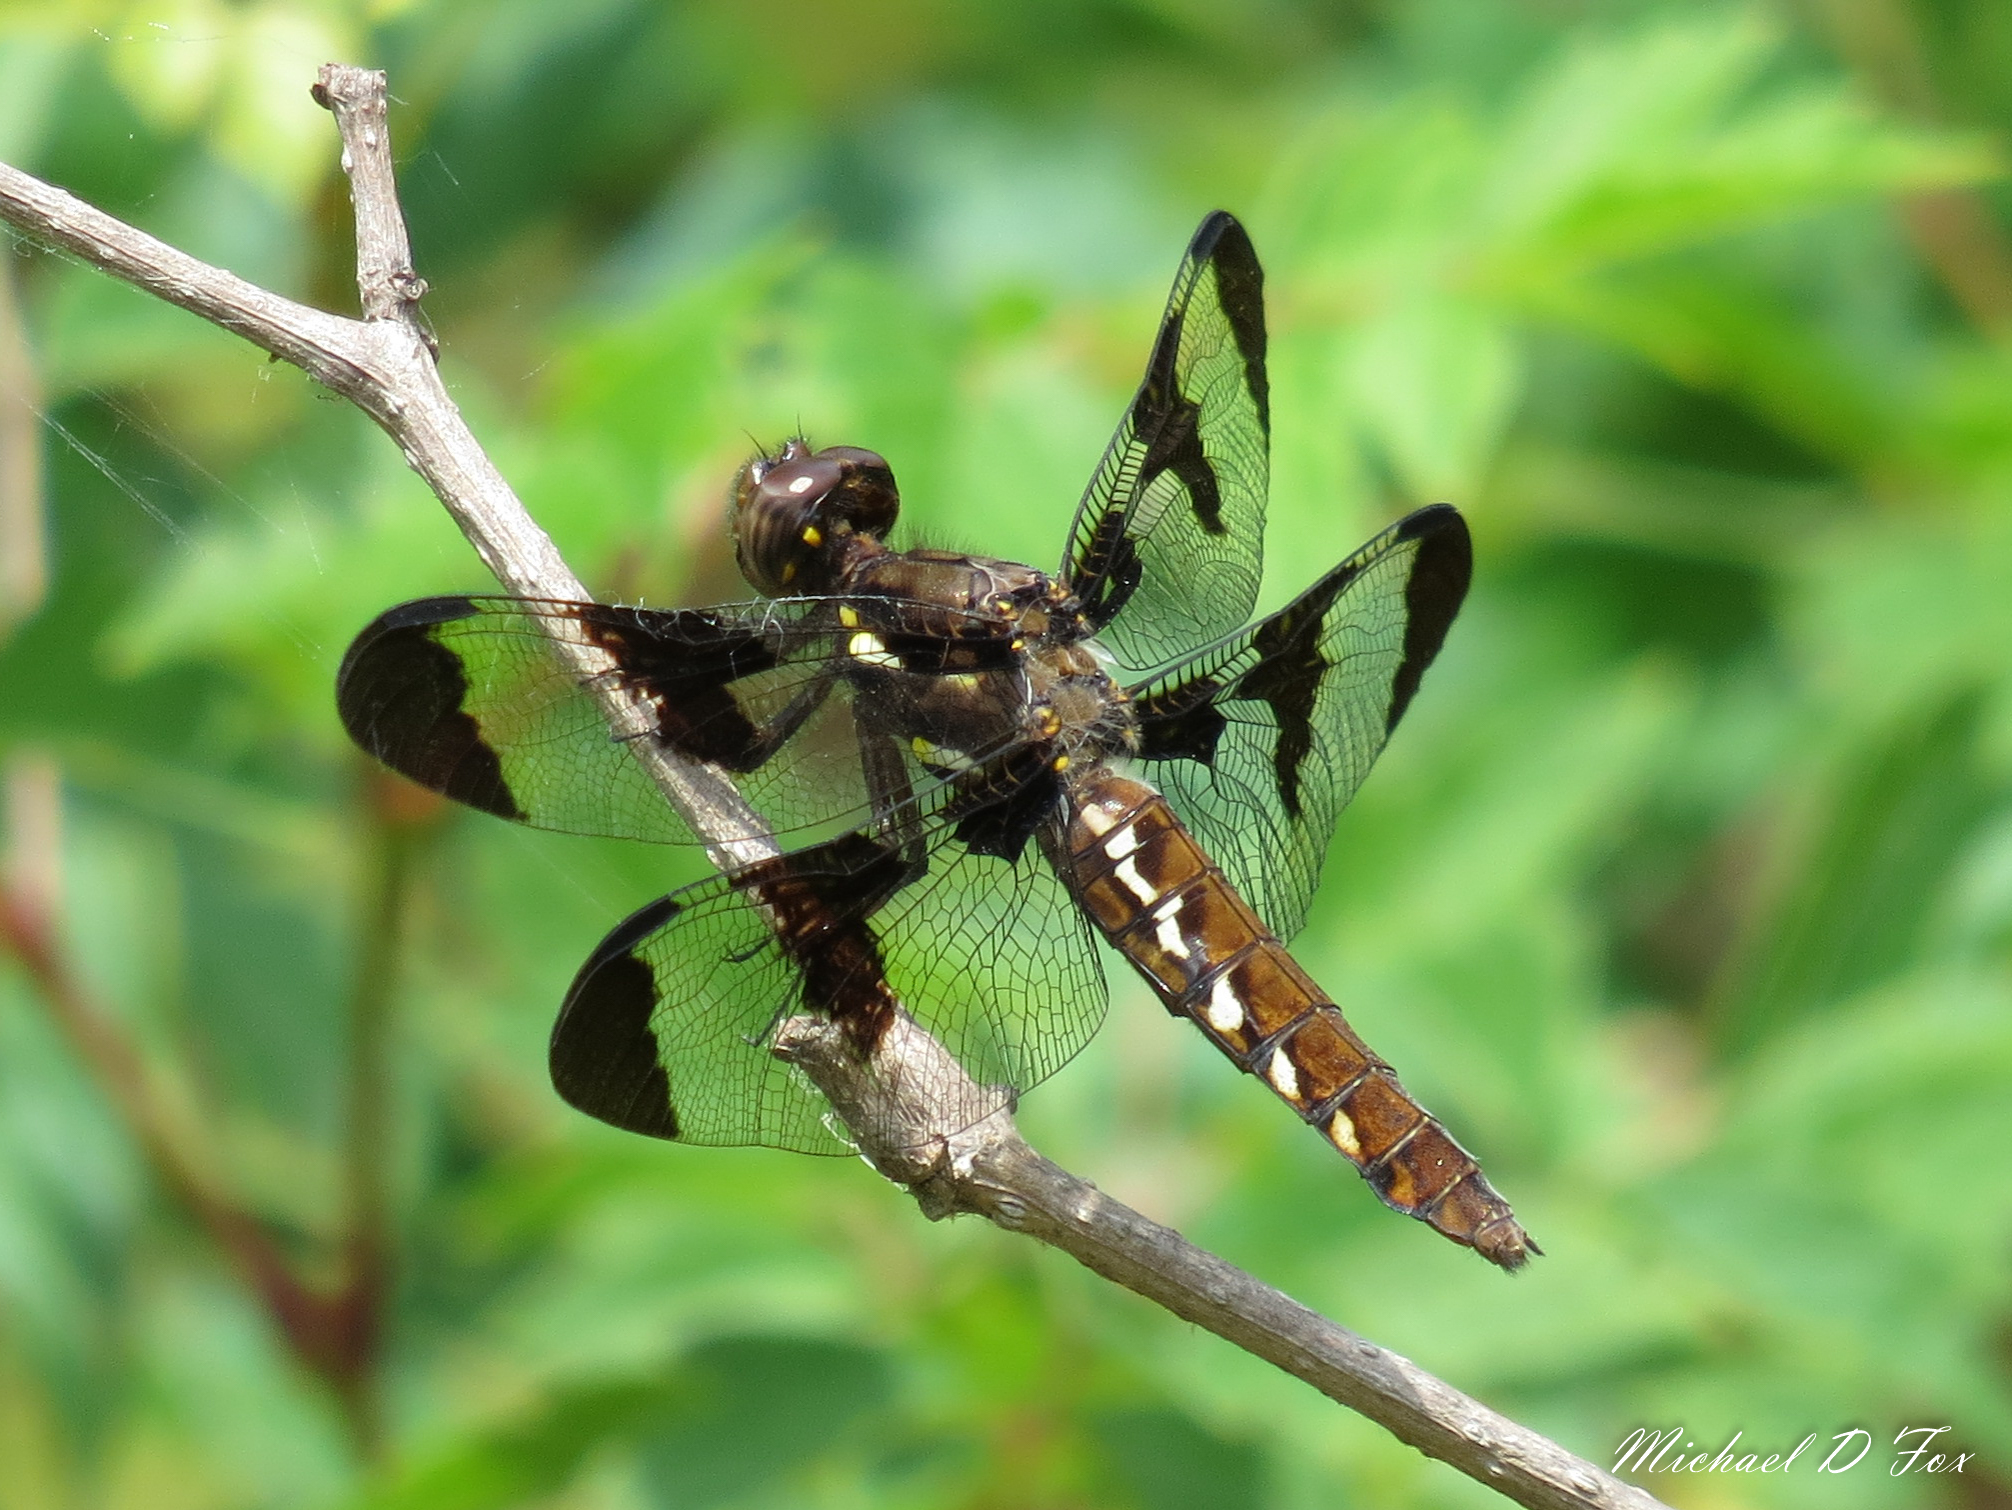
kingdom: Animalia
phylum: Arthropoda
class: Insecta
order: Odonata
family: Libellulidae
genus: Plathemis
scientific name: Plathemis lydia
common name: Common whitetail
